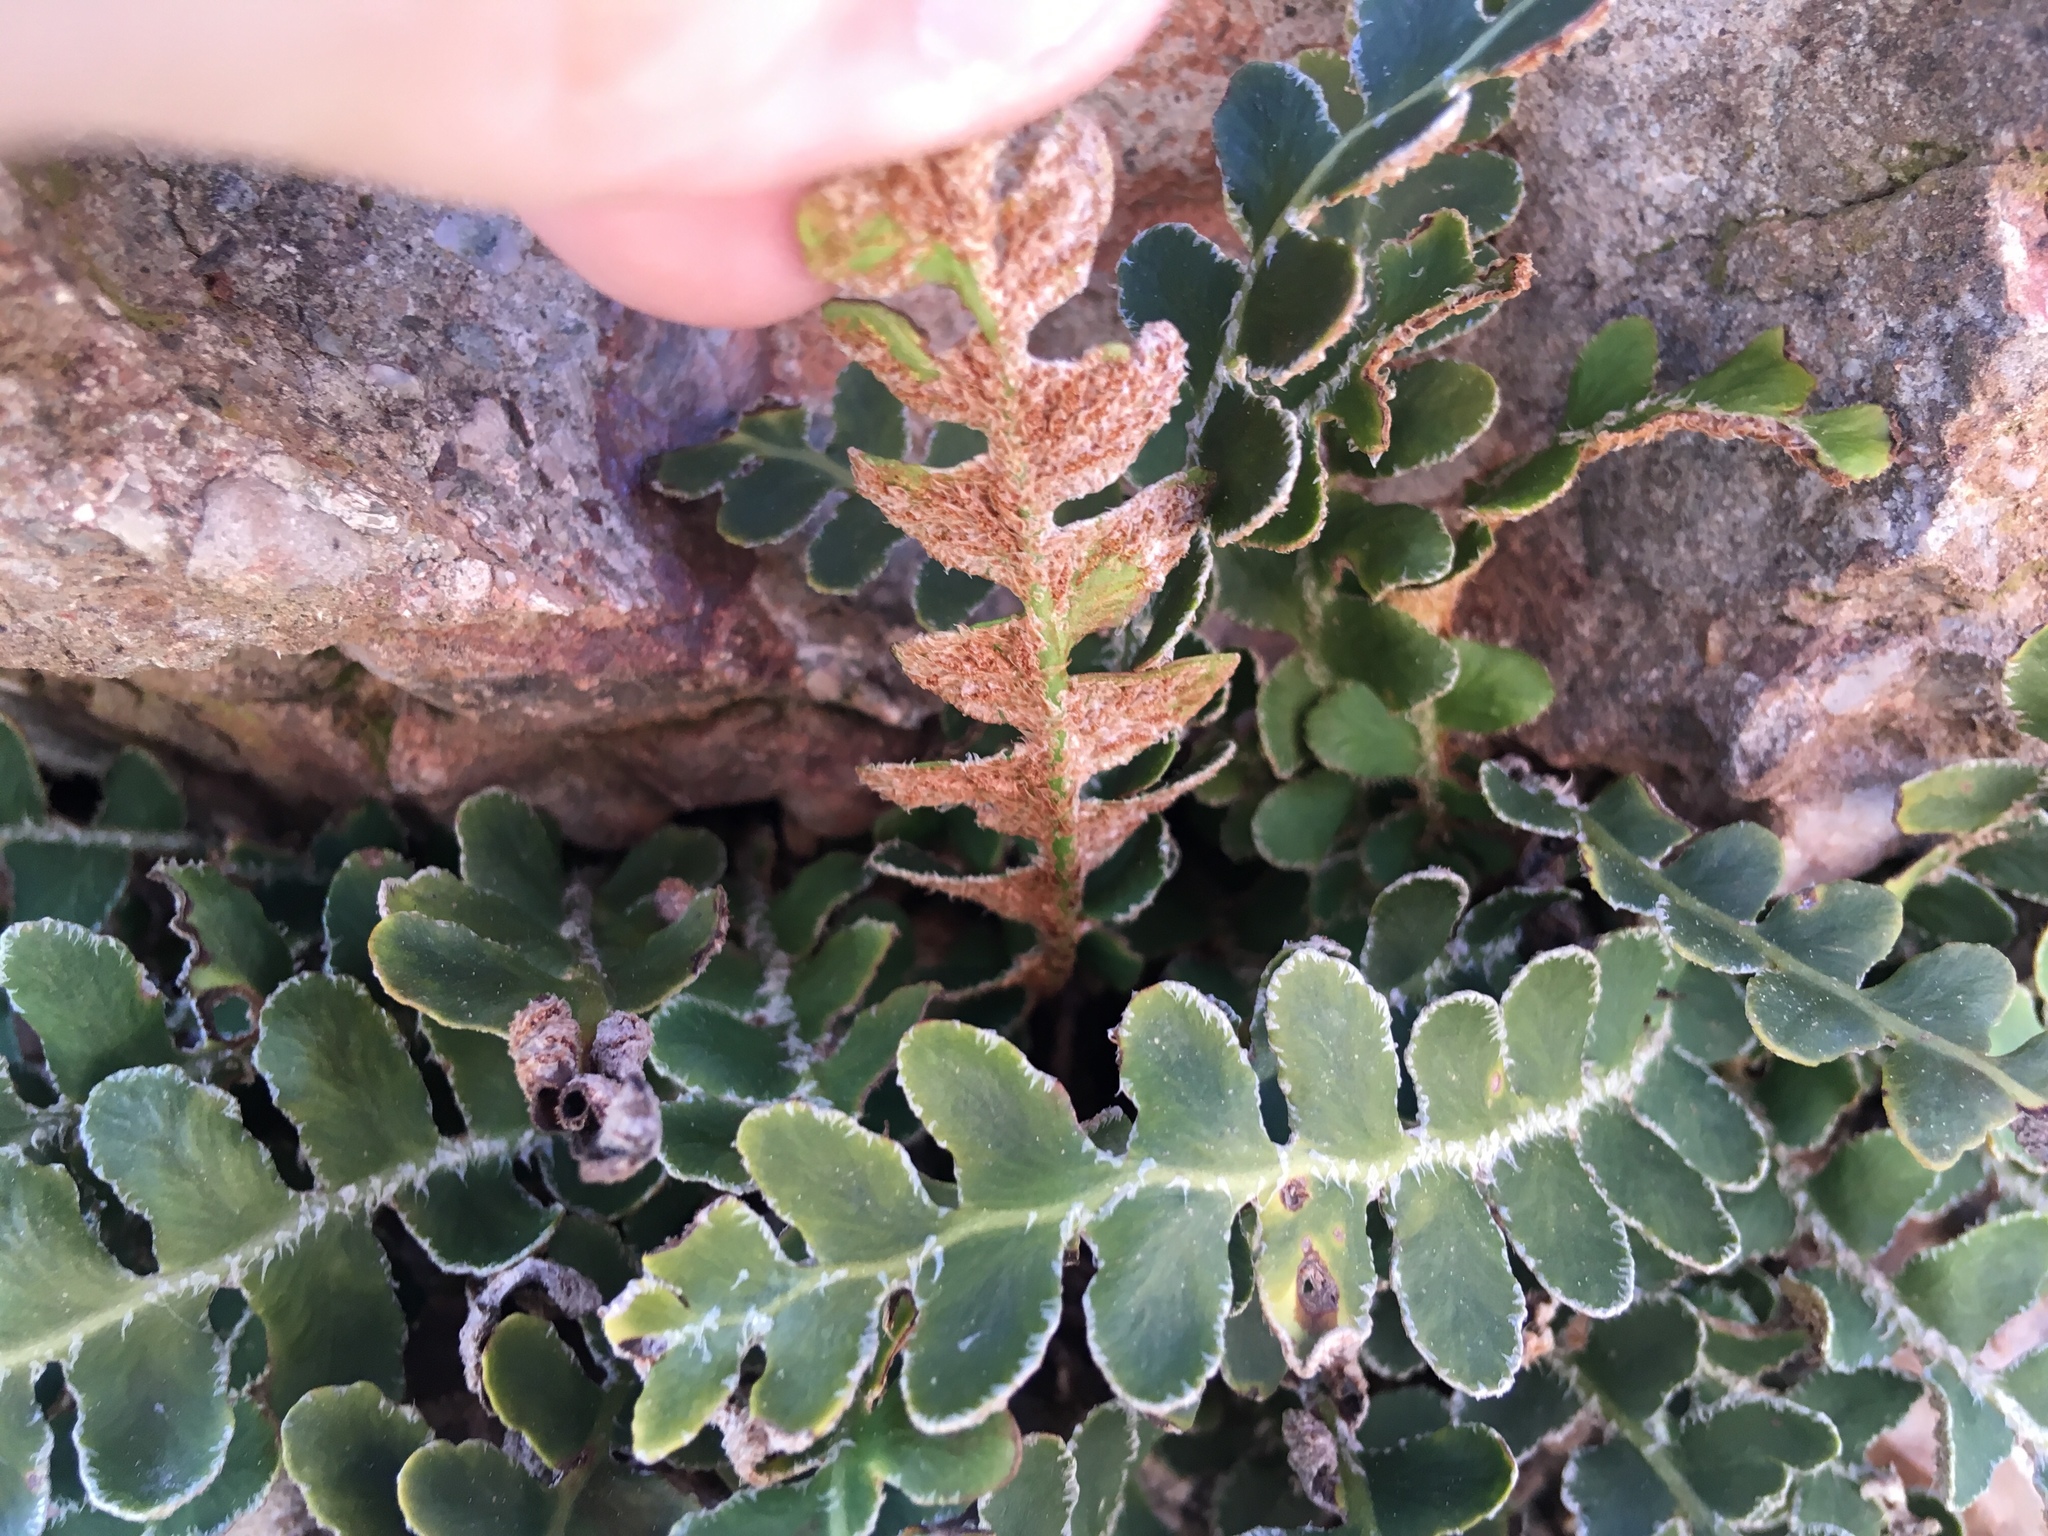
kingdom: Plantae
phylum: Tracheophyta
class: Polypodiopsida
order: Polypodiales
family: Aspleniaceae
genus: Asplenium
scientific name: Asplenium ceterach
